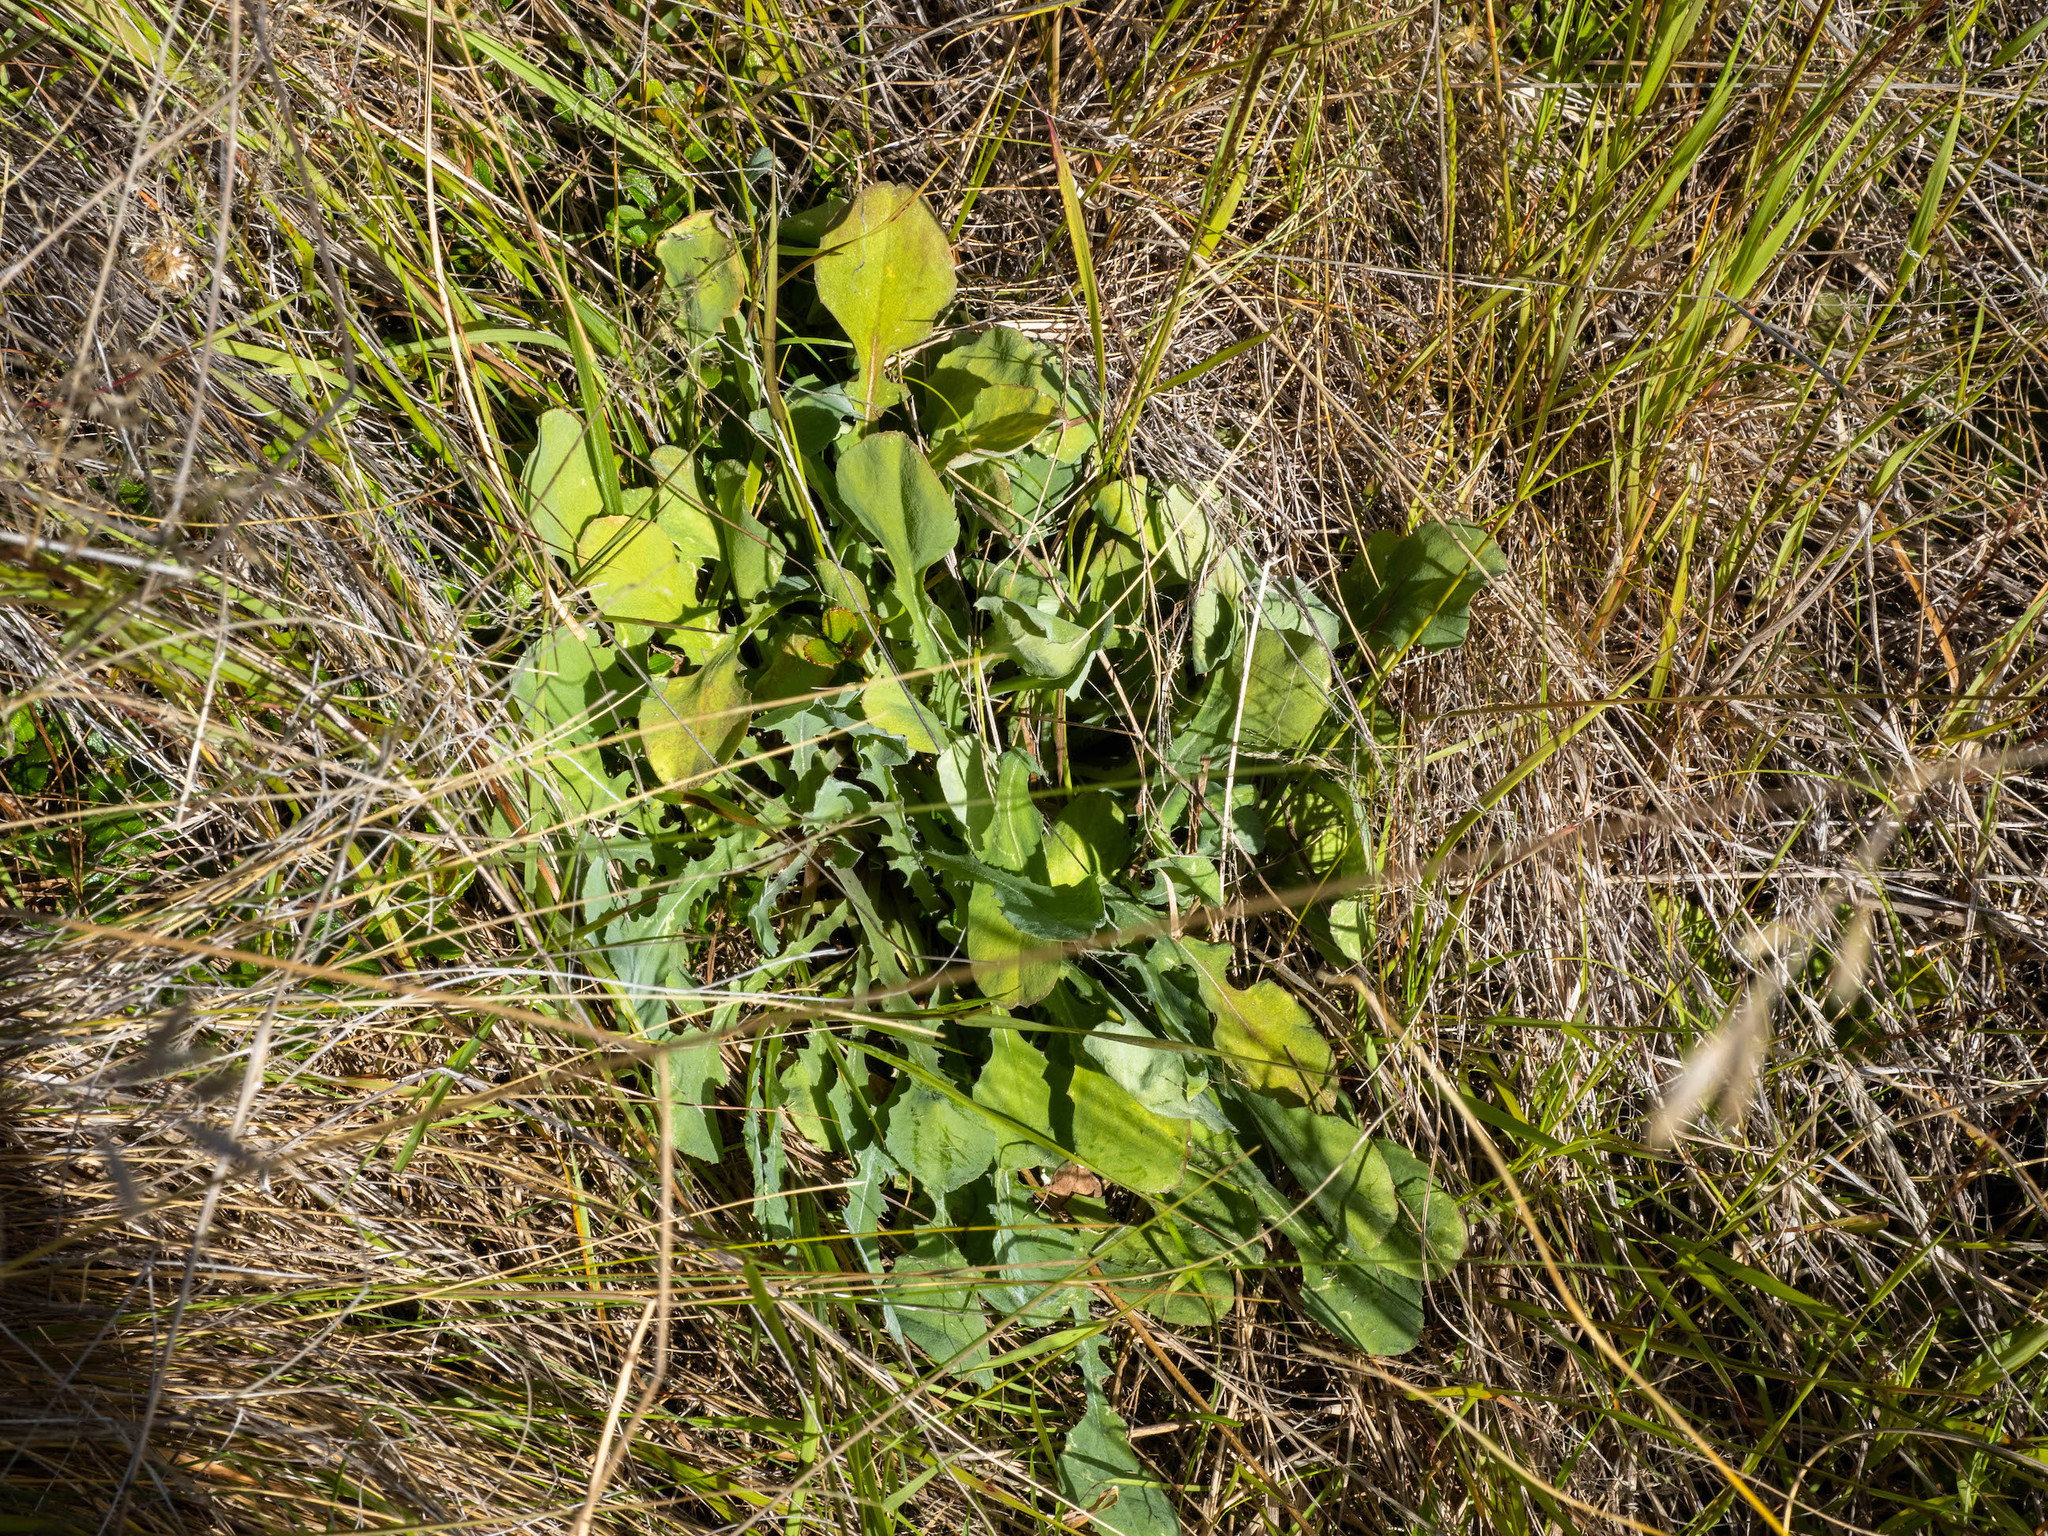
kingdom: Plantae
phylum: Tracheophyta
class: Magnoliopsida
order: Asterales
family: Asteraceae
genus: Sonchus
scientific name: Sonchus novae-zelandiae
